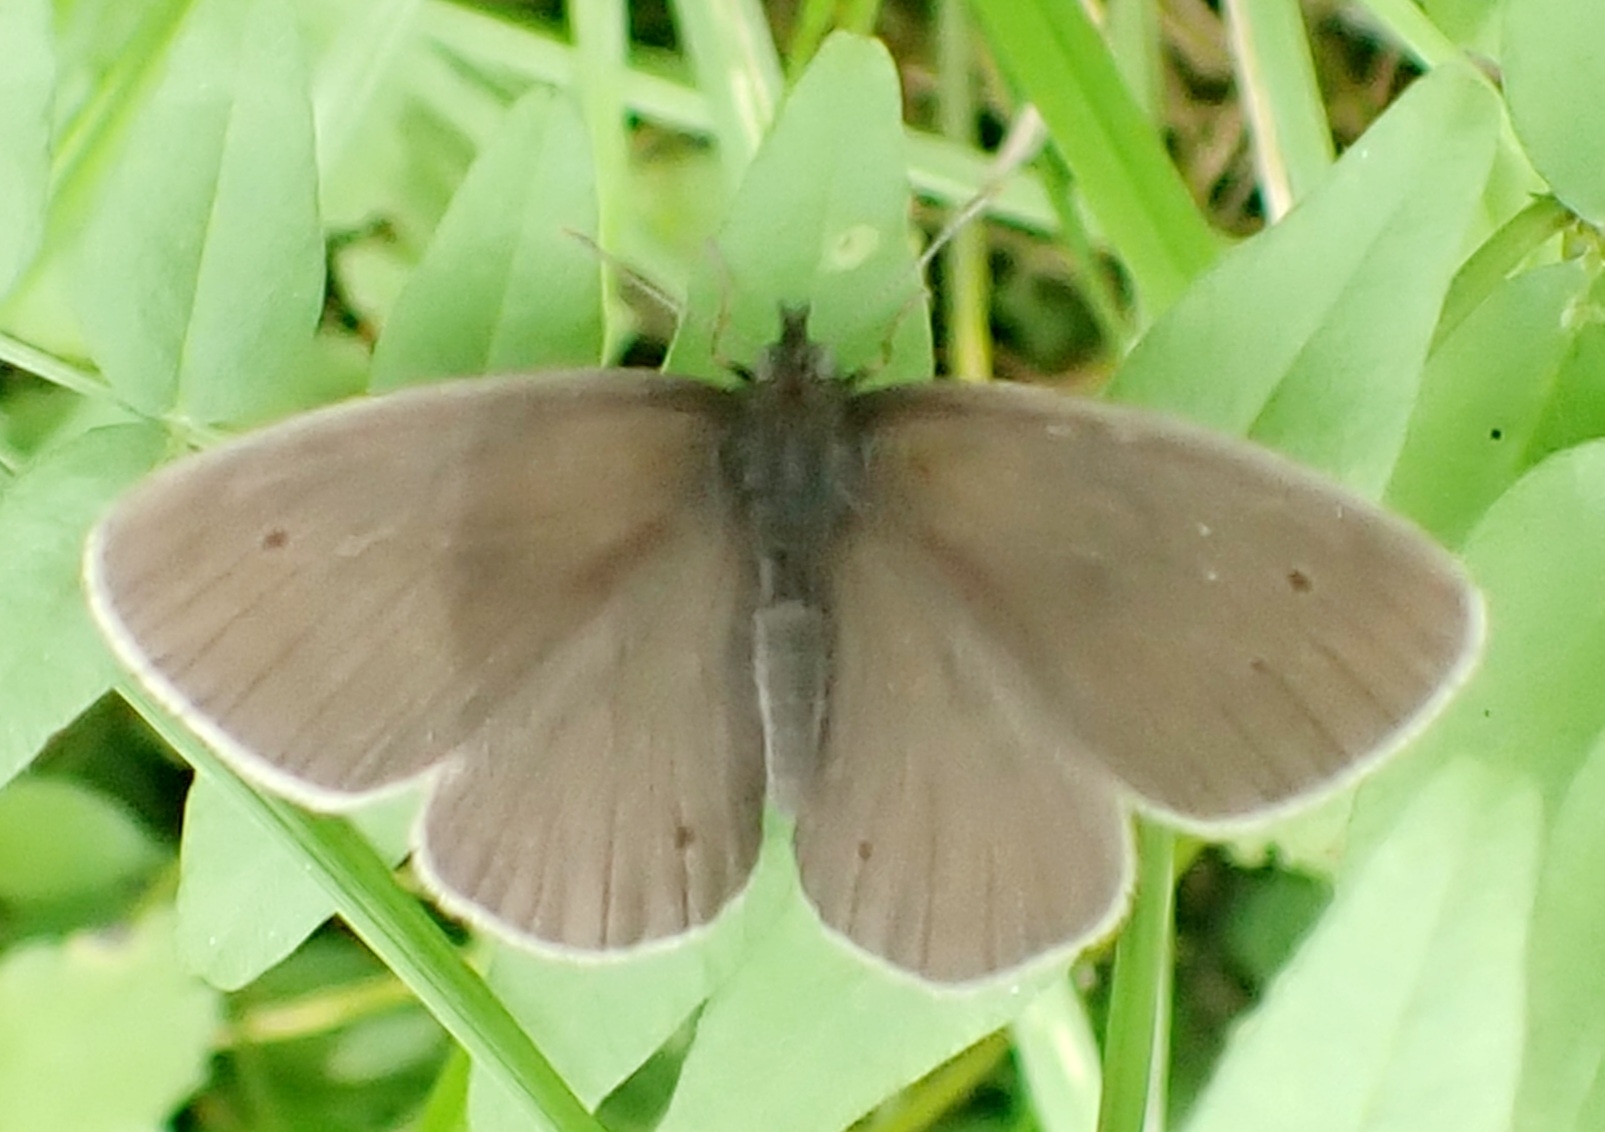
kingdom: Animalia
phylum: Arthropoda
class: Insecta
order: Lepidoptera
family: Nymphalidae
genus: Aphantopus
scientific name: Aphantopus hyperantus
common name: Ringlet
